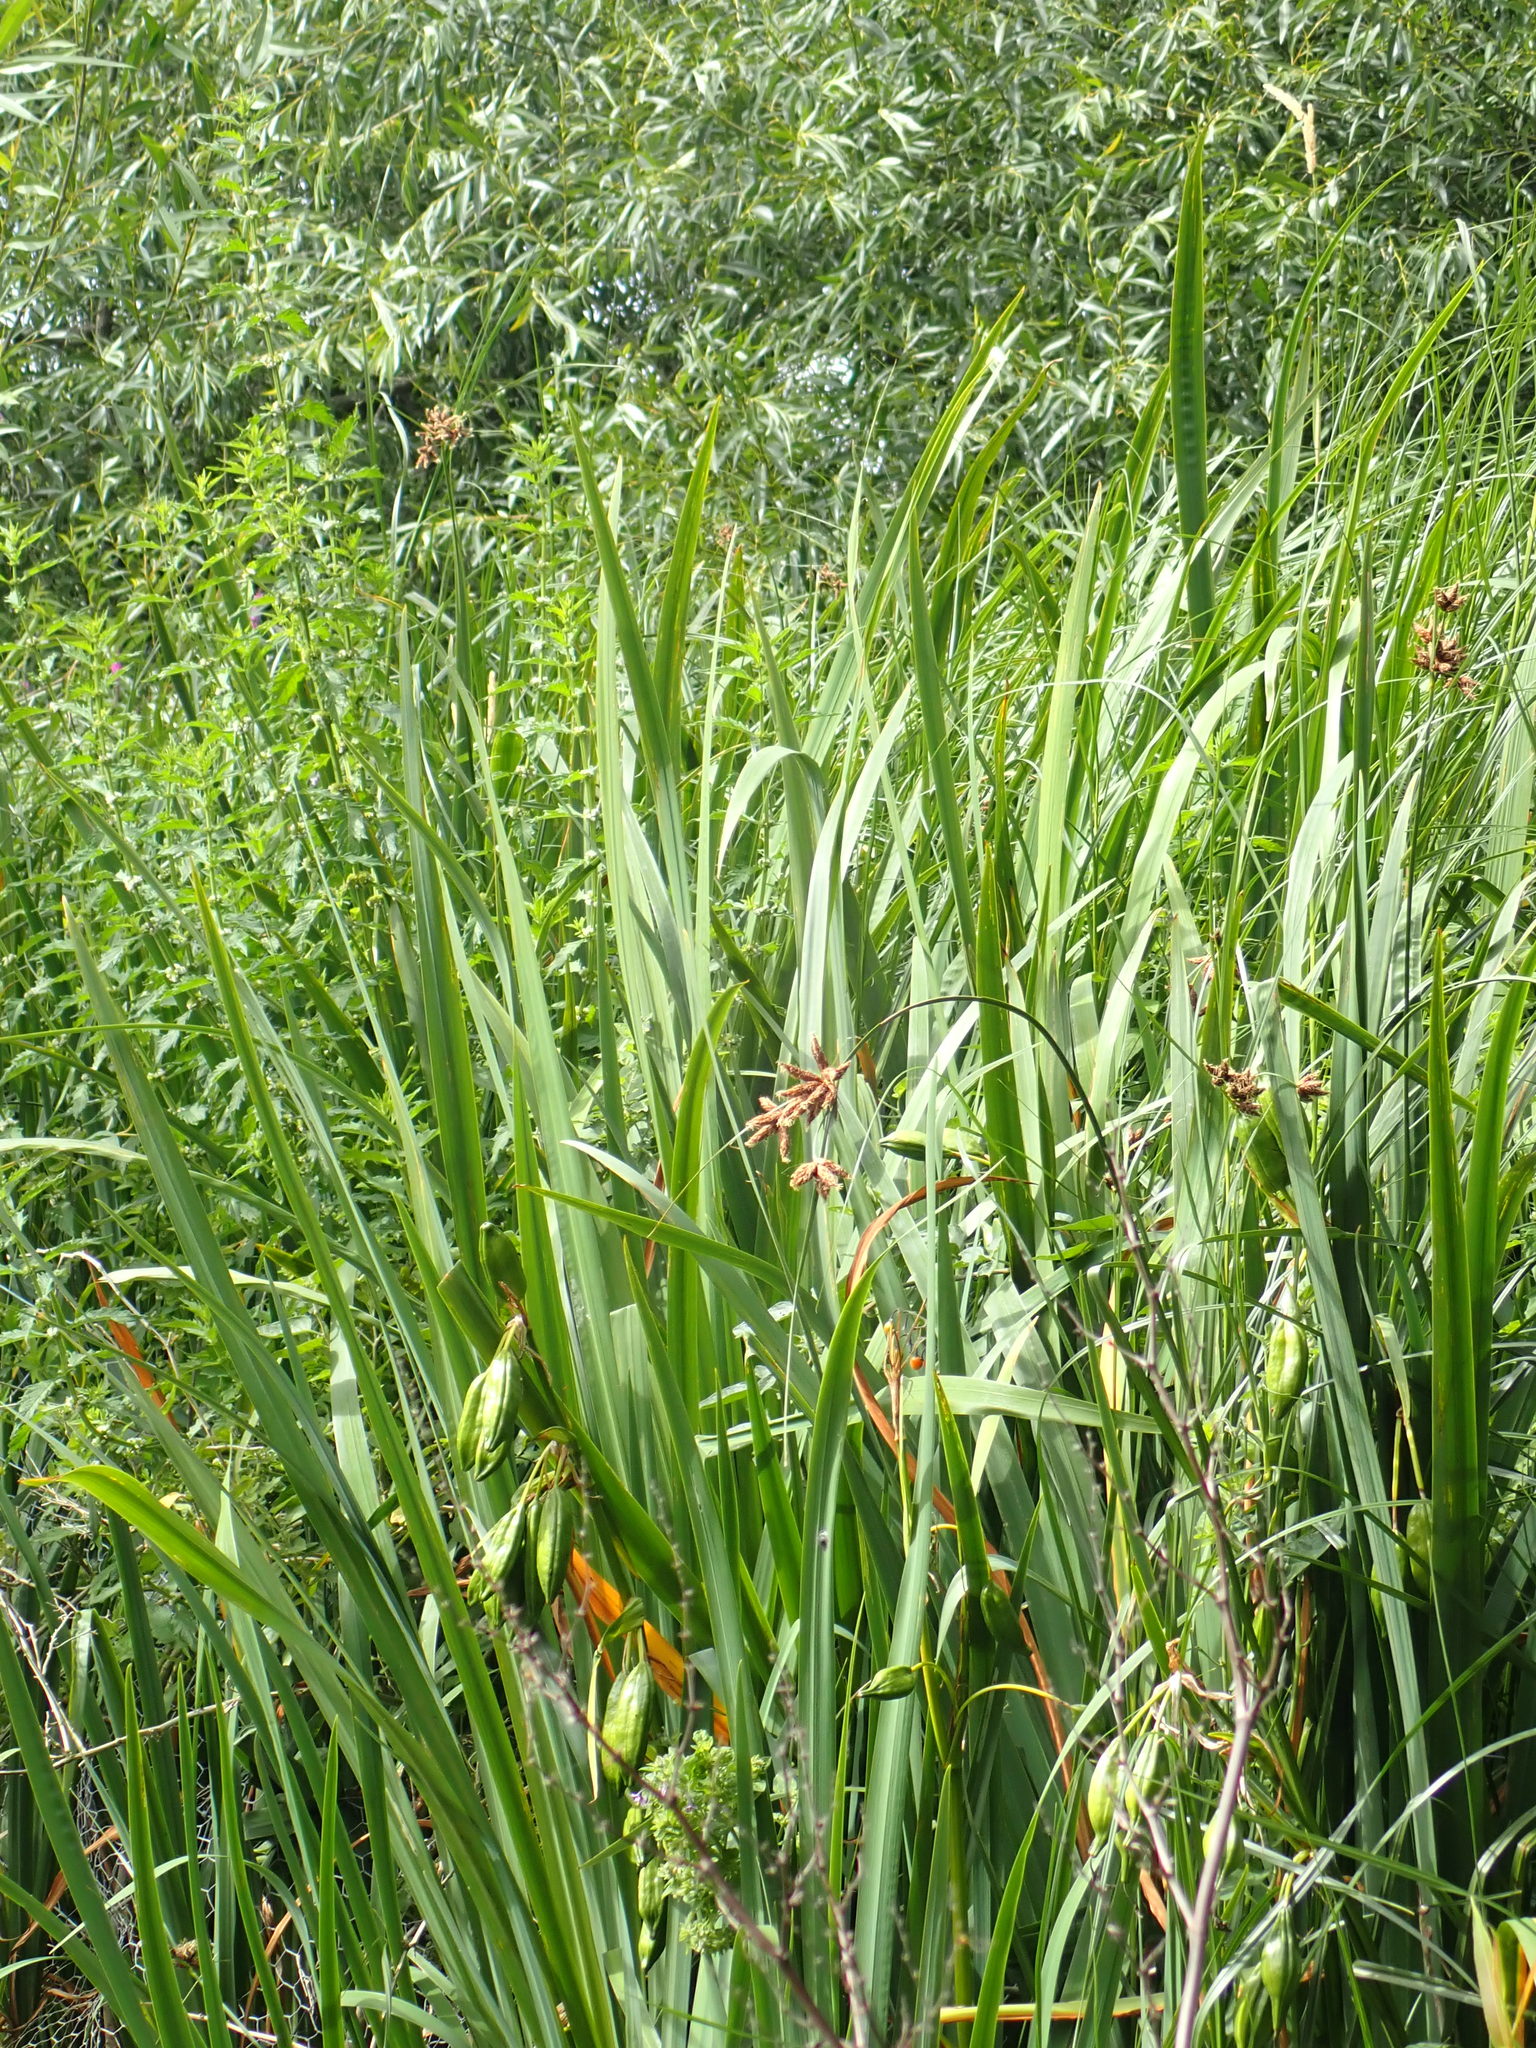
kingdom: Plantae
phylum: Tracheophyta
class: Liliopsida
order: Poales
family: Cyperaceae
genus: Bolboschoenus
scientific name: Bolboschoenus maritimus
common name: Sea club-rush
